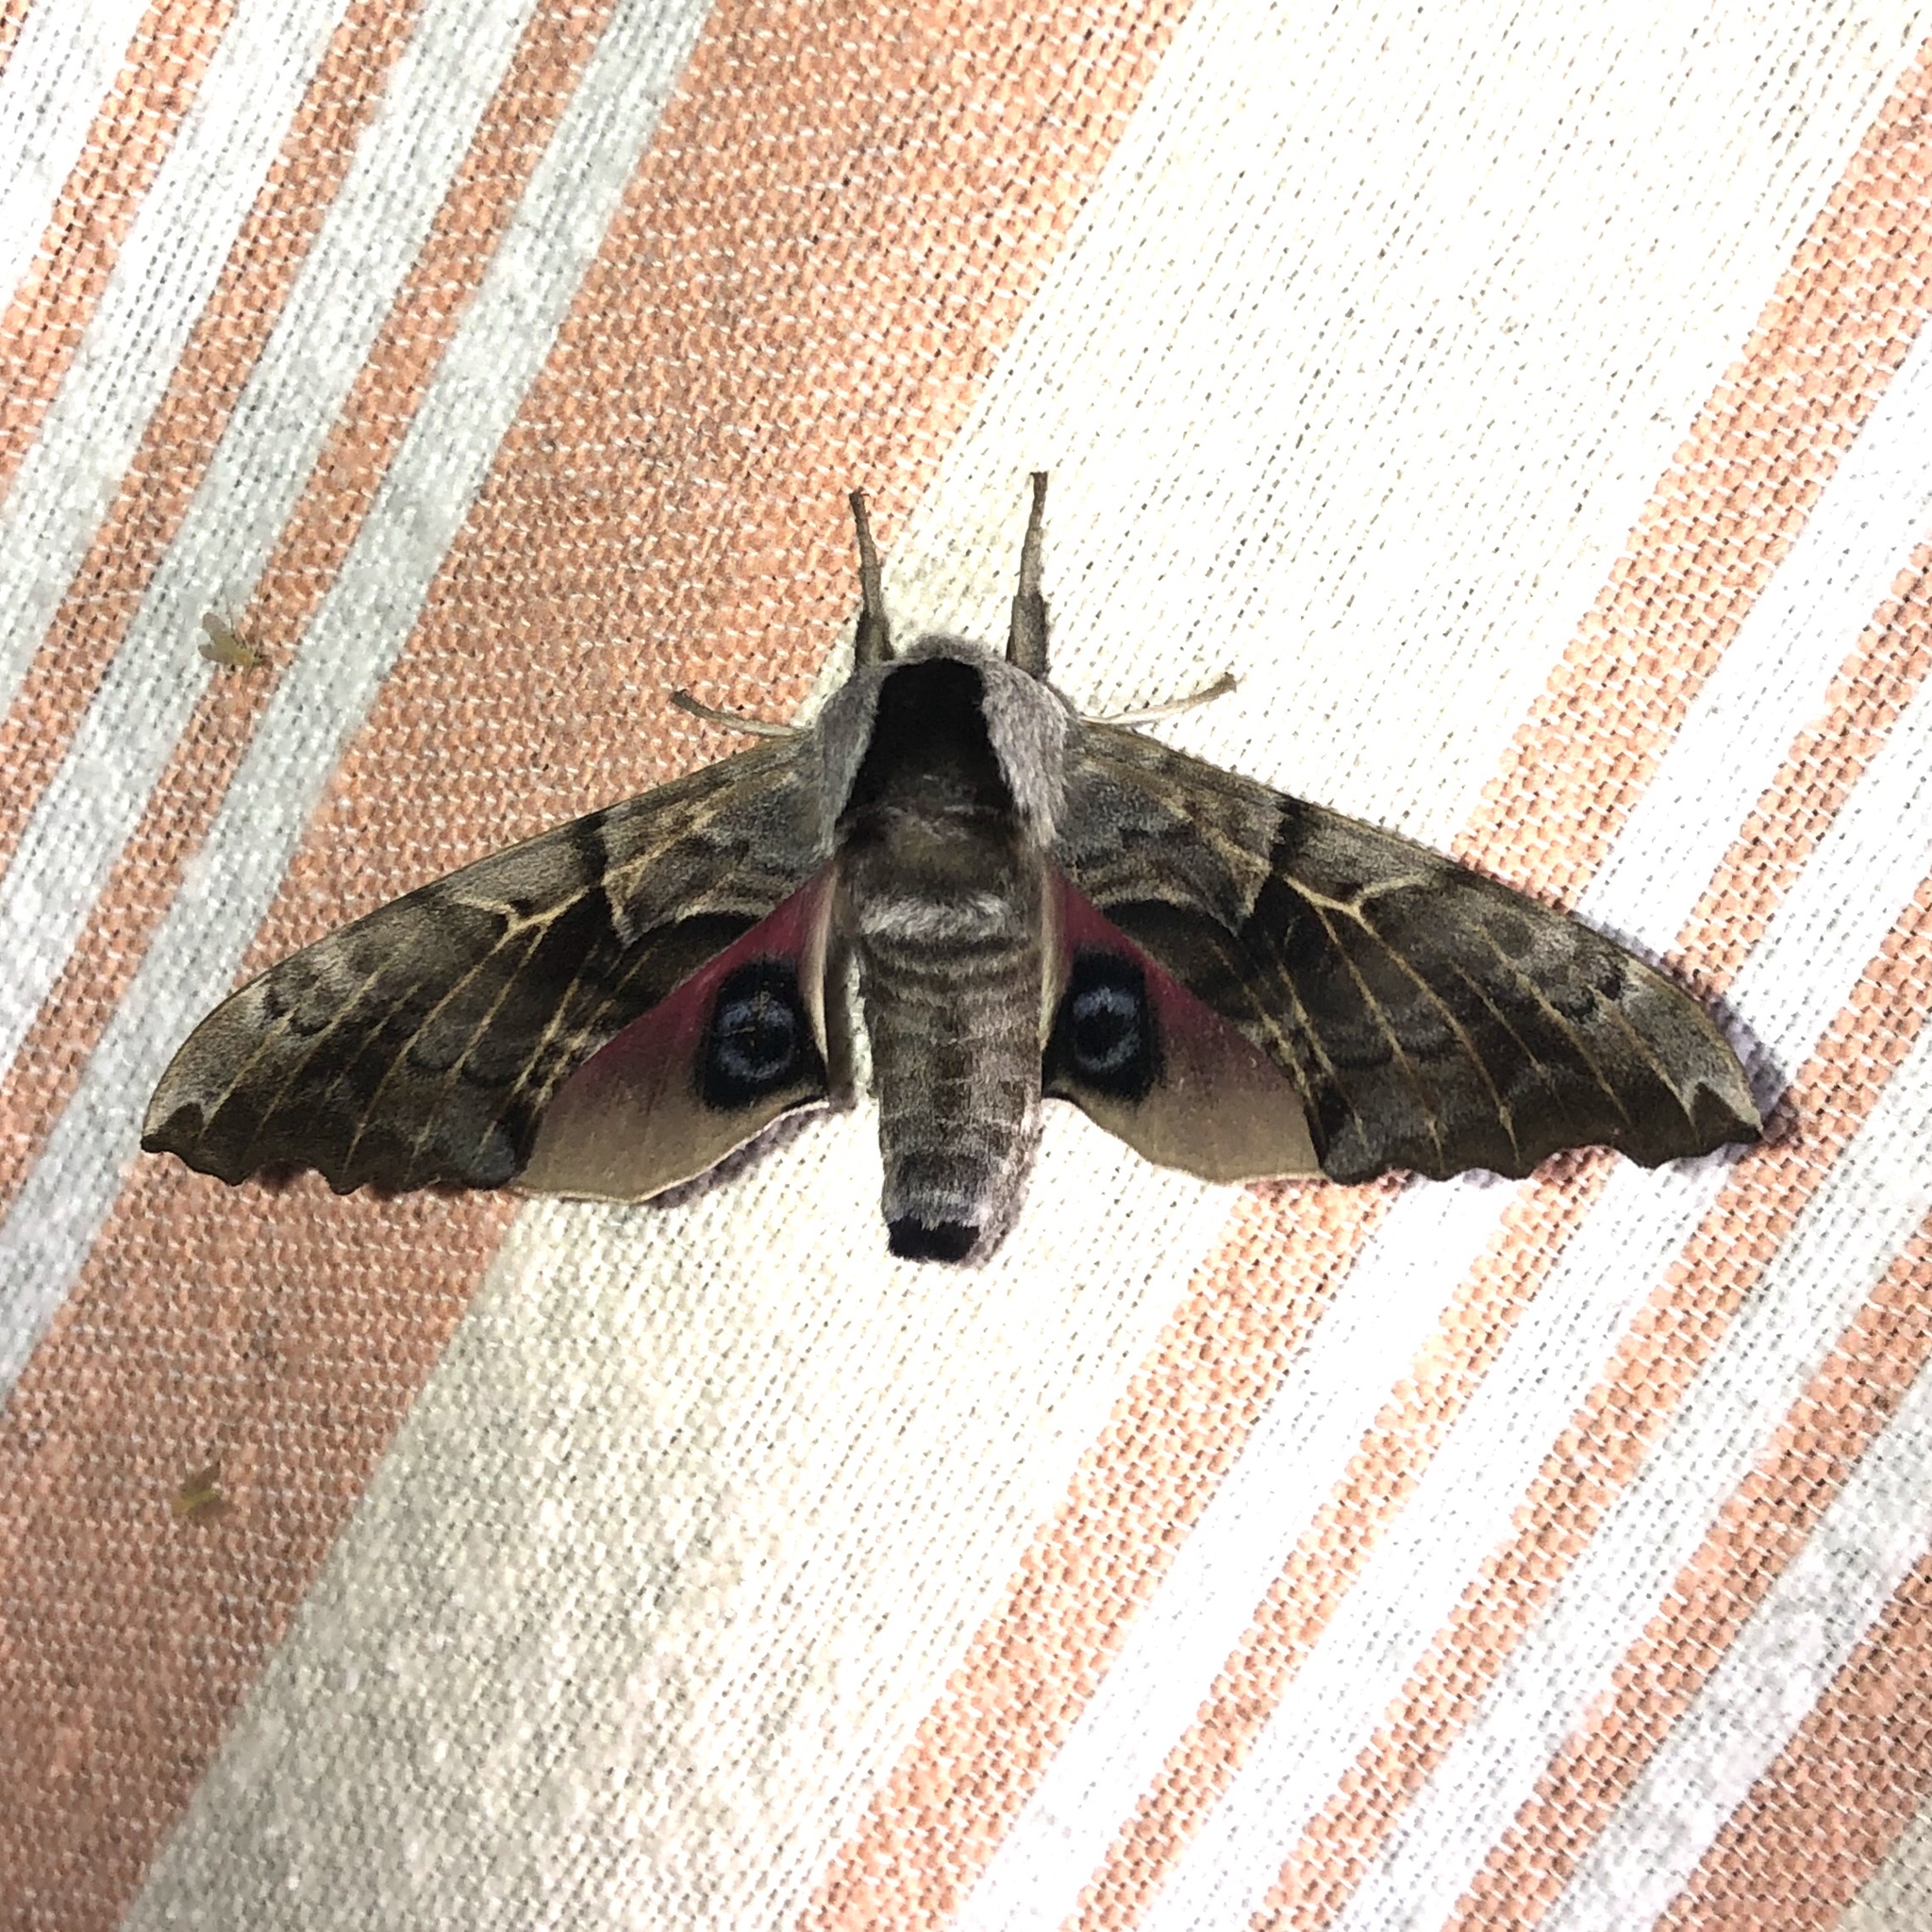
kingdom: Animalia
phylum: Arthropoda
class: Insecta
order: Lepidoptera
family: Sphingidae
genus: Smerinthus
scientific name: Smerinthus cerisyi
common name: Cerisy's sphinx moth
